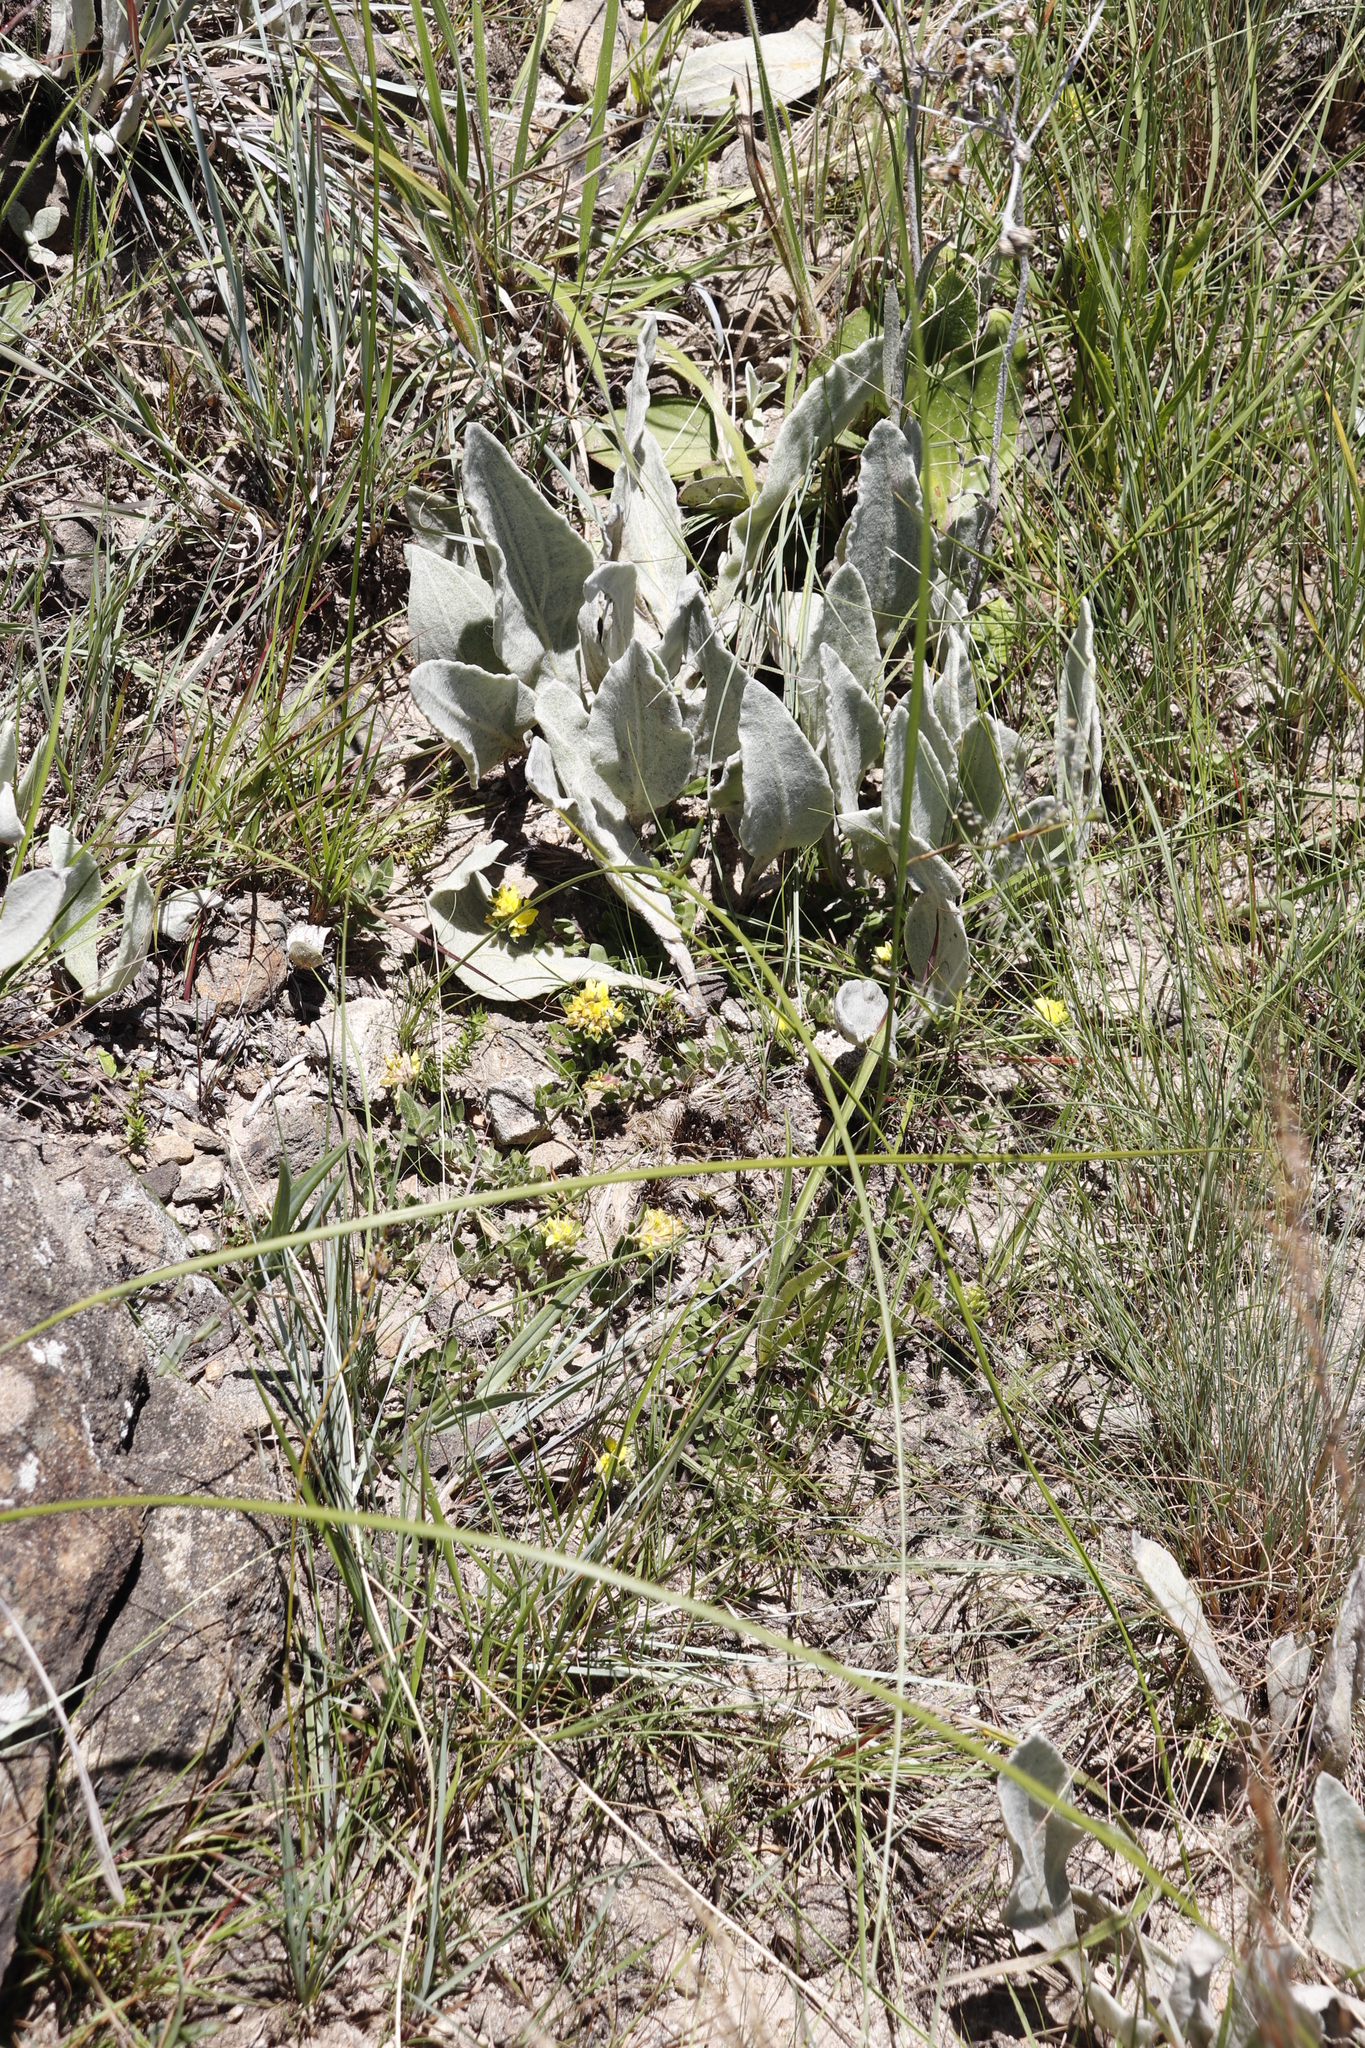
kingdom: Plantae
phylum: Tracheophyta
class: Magnoliopsida
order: Asterales
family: Asteraceae
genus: Helichrysum
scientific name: Helichrysum acutatum
